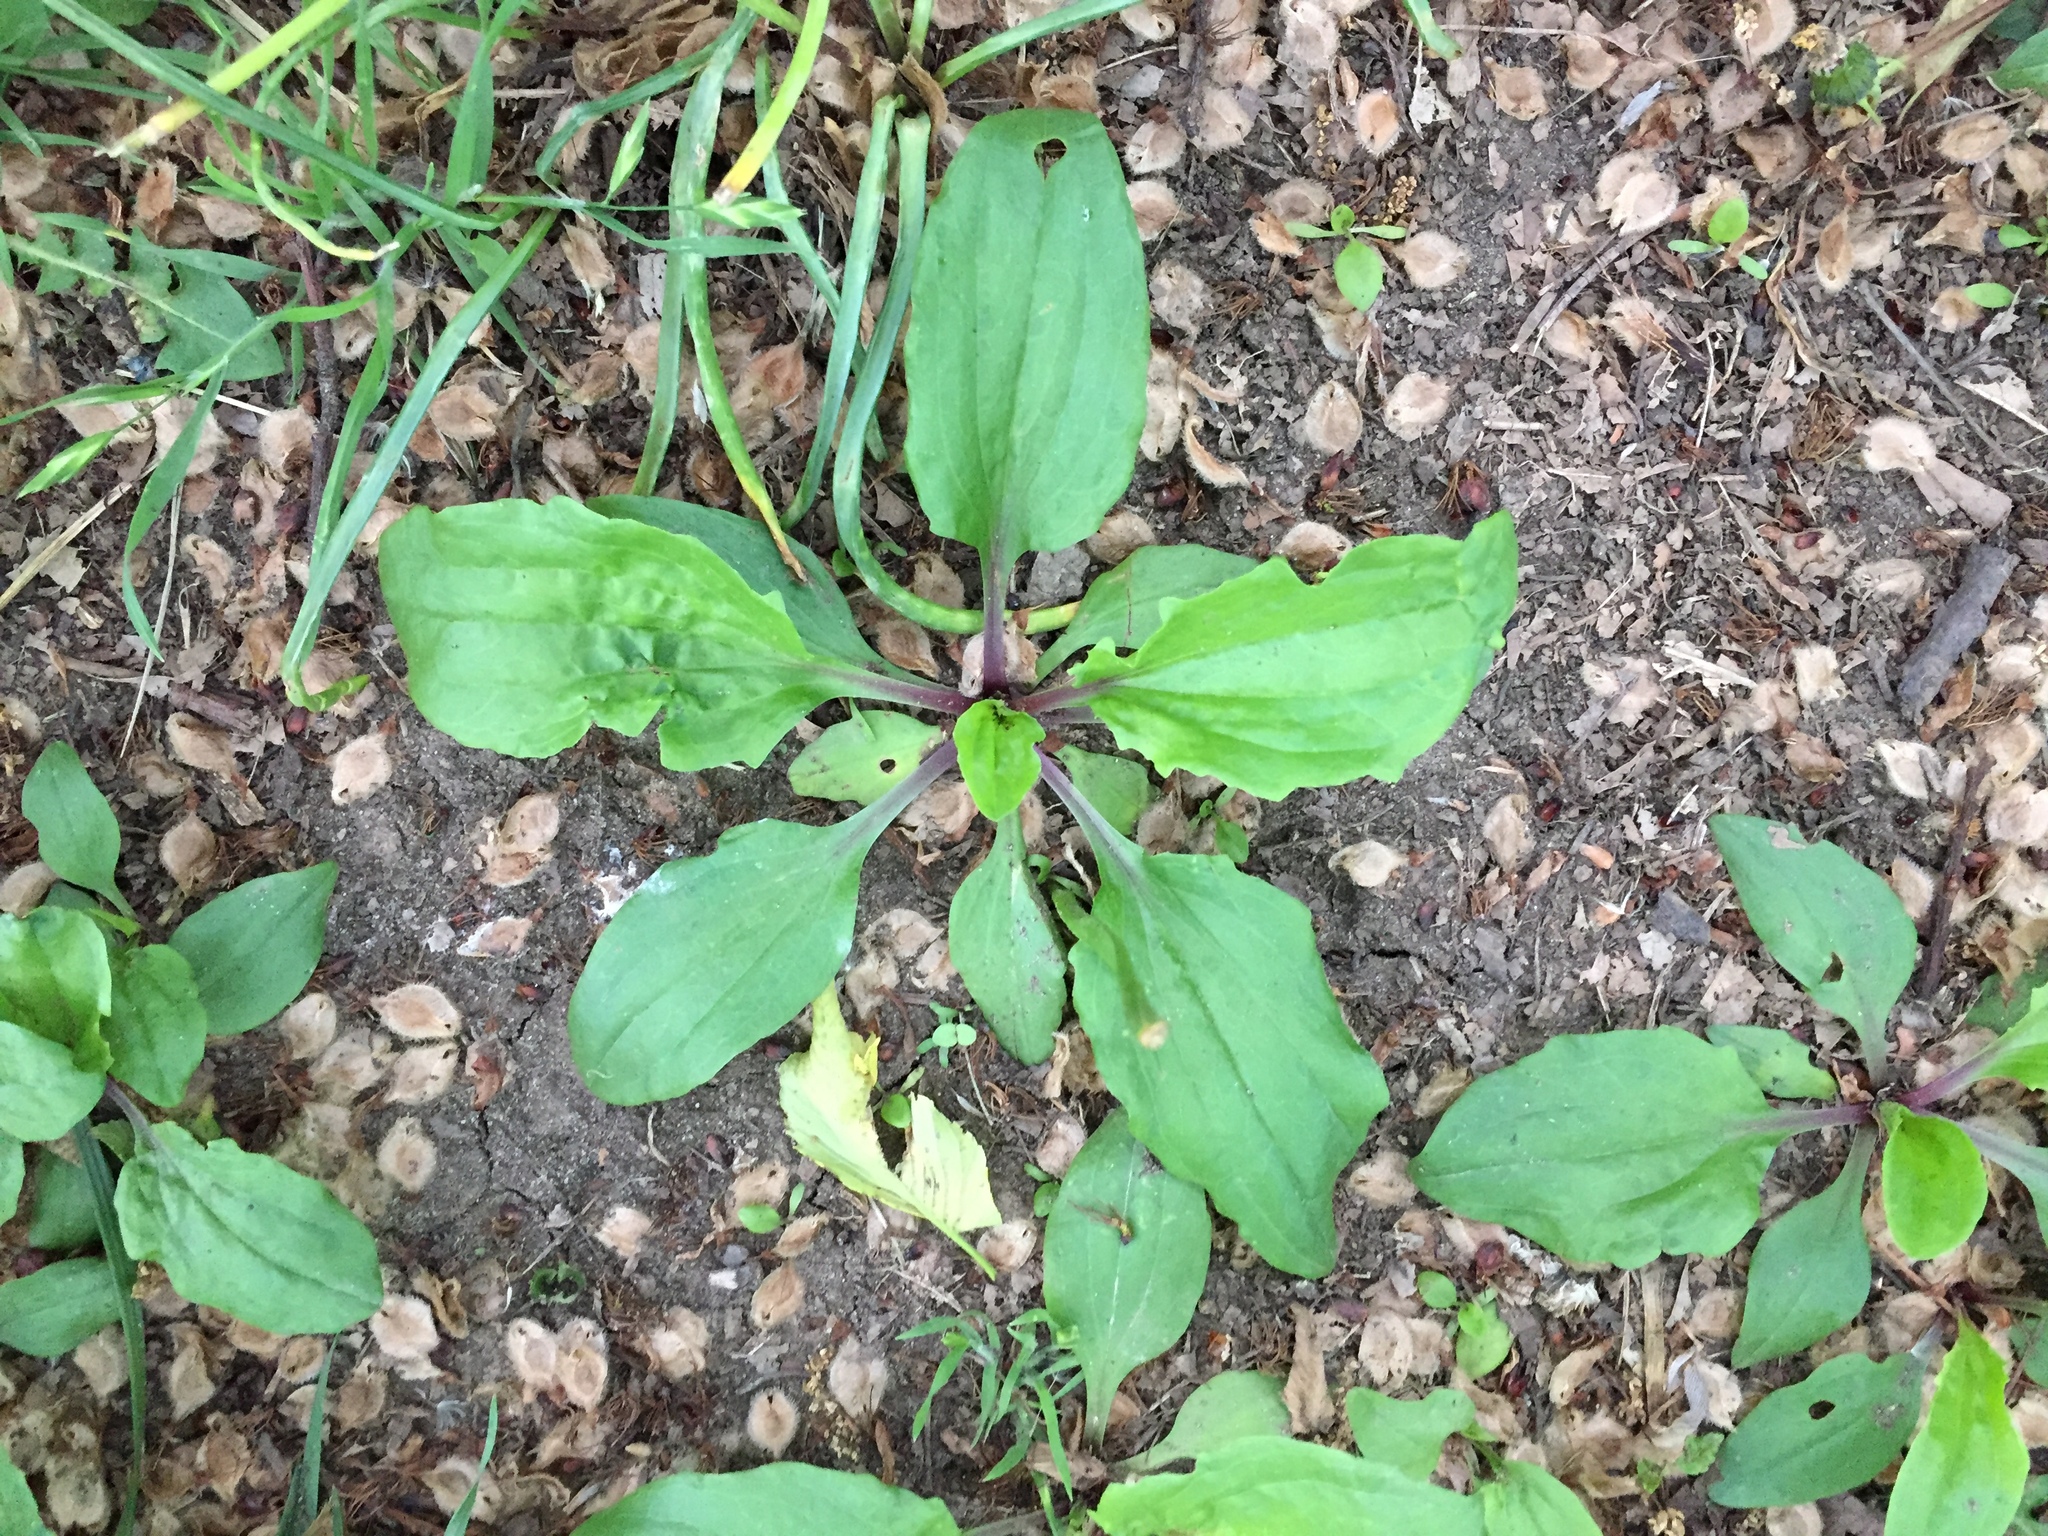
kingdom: Plantae
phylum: Tracheophyta
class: Magnoliopsida
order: Lamiales
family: Plantaginaceae
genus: Plantago
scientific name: Plantago rugelii
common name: American plantain
